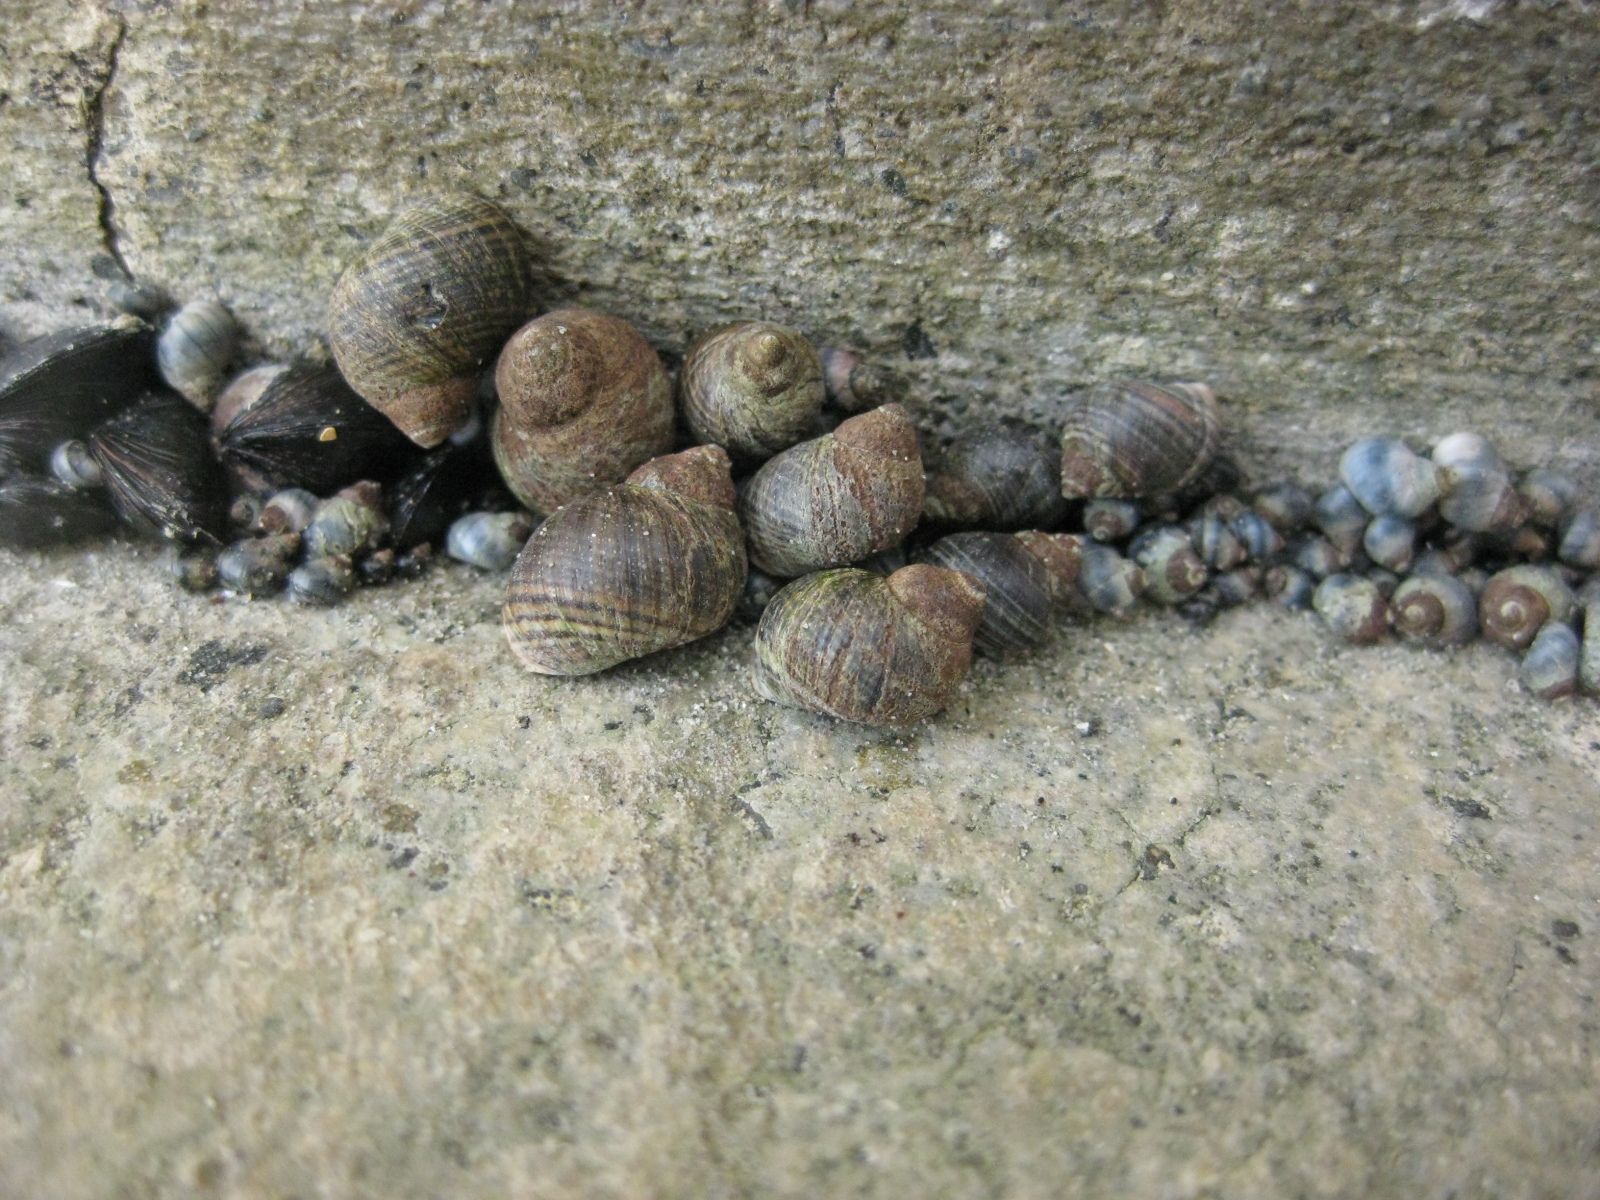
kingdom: Animalia
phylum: Mollusca
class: Gastropoda
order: Littorinimorpha
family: Littorinidae
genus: Austrolittorina
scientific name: Austrolittorina cincta
